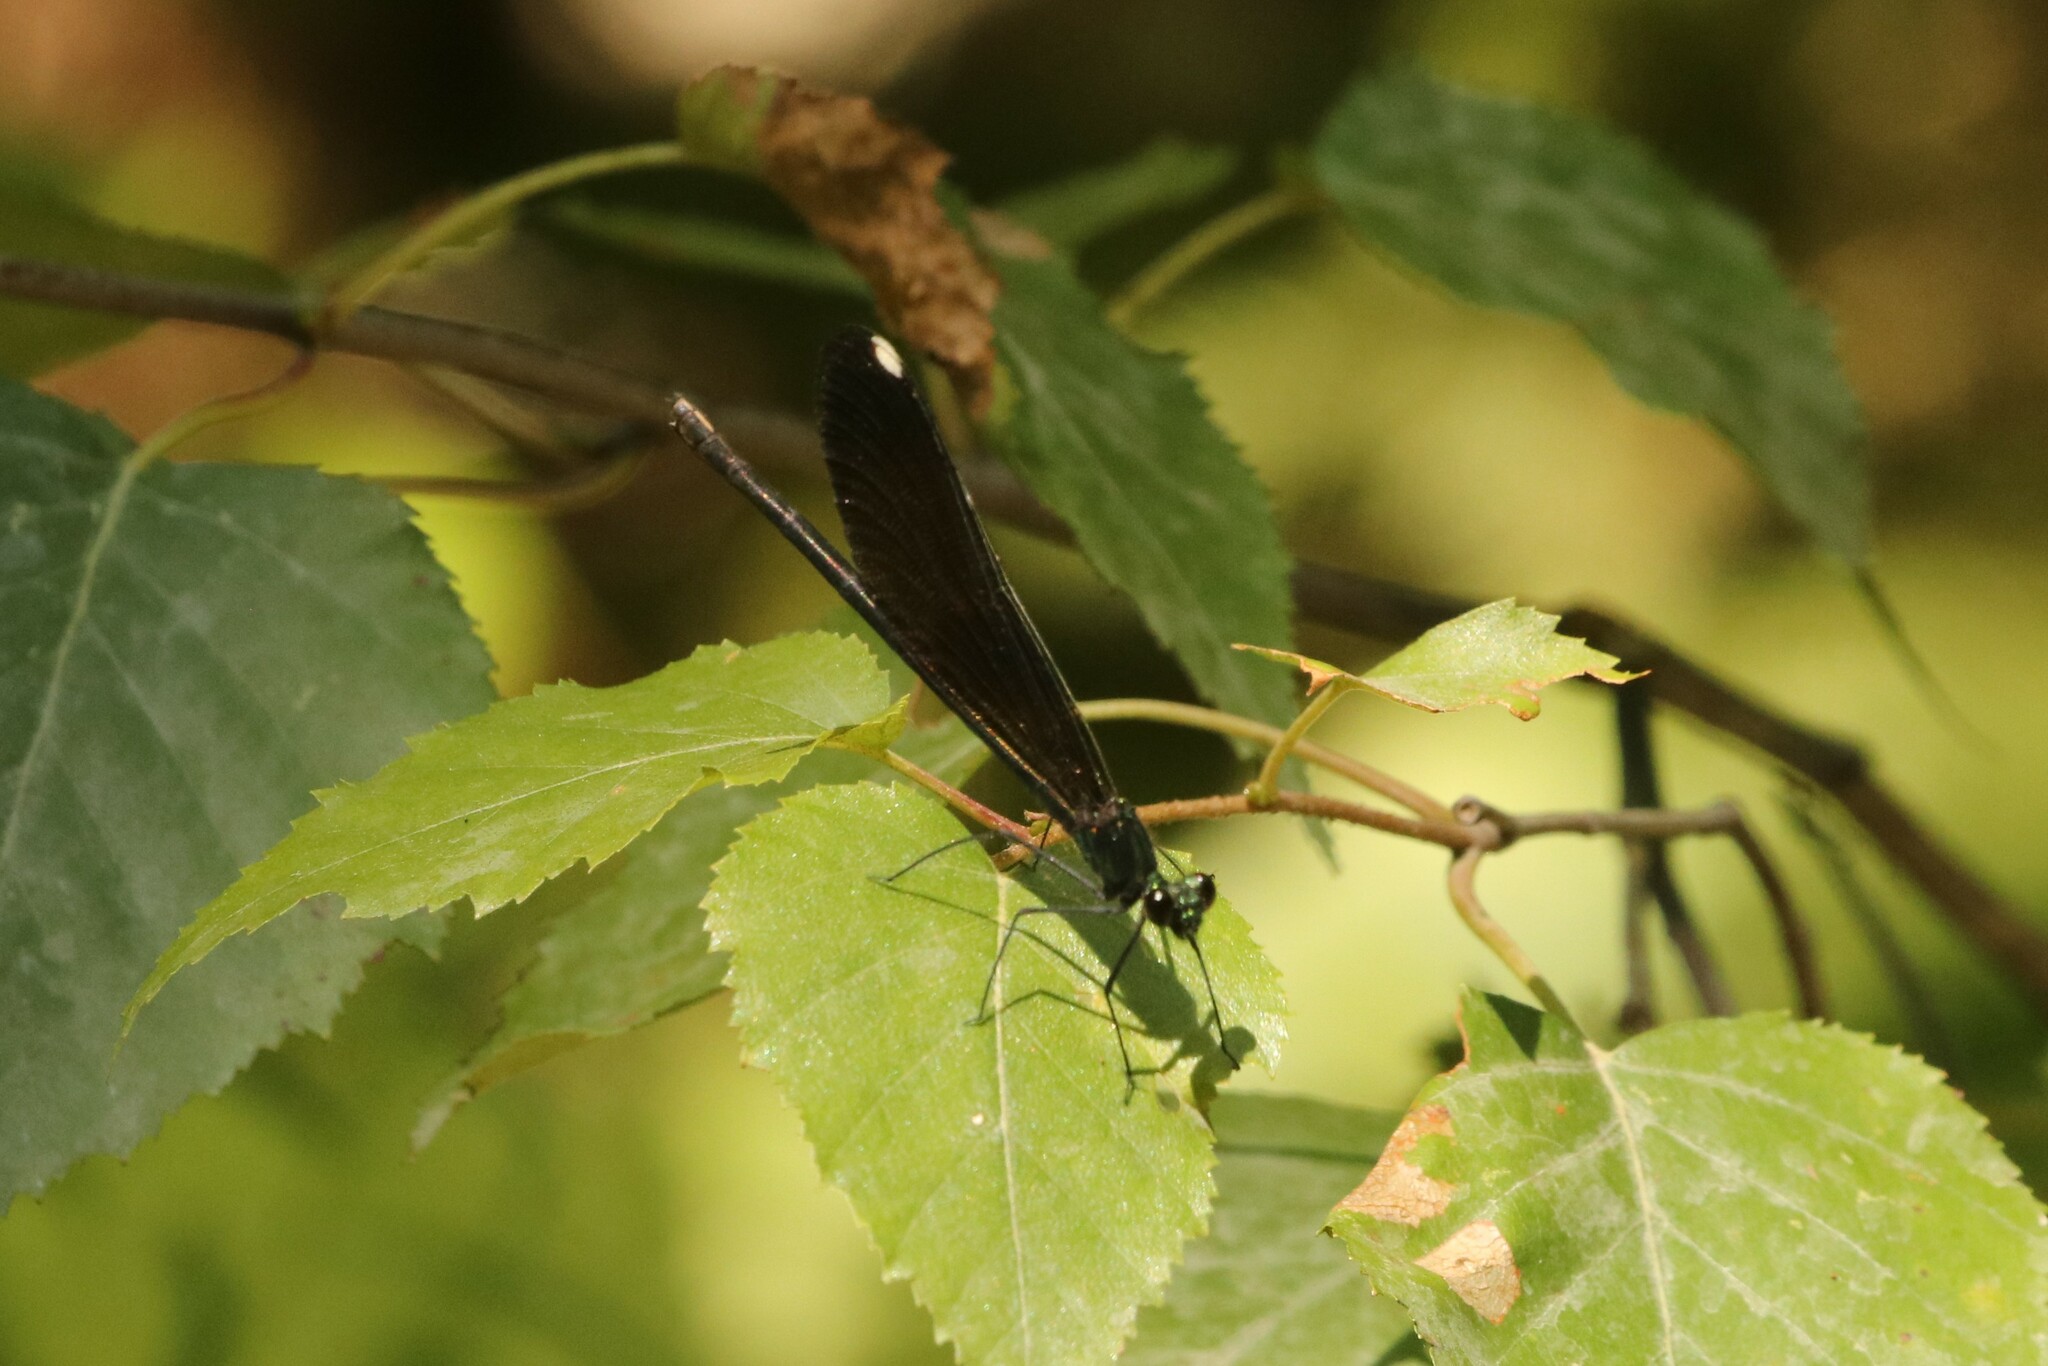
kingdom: Animalia
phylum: Arthropoda
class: Insecta
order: Odonata
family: Calopterygidae
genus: Calopteryx
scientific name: Calopteryx maculata
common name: Ebony jewelwing
